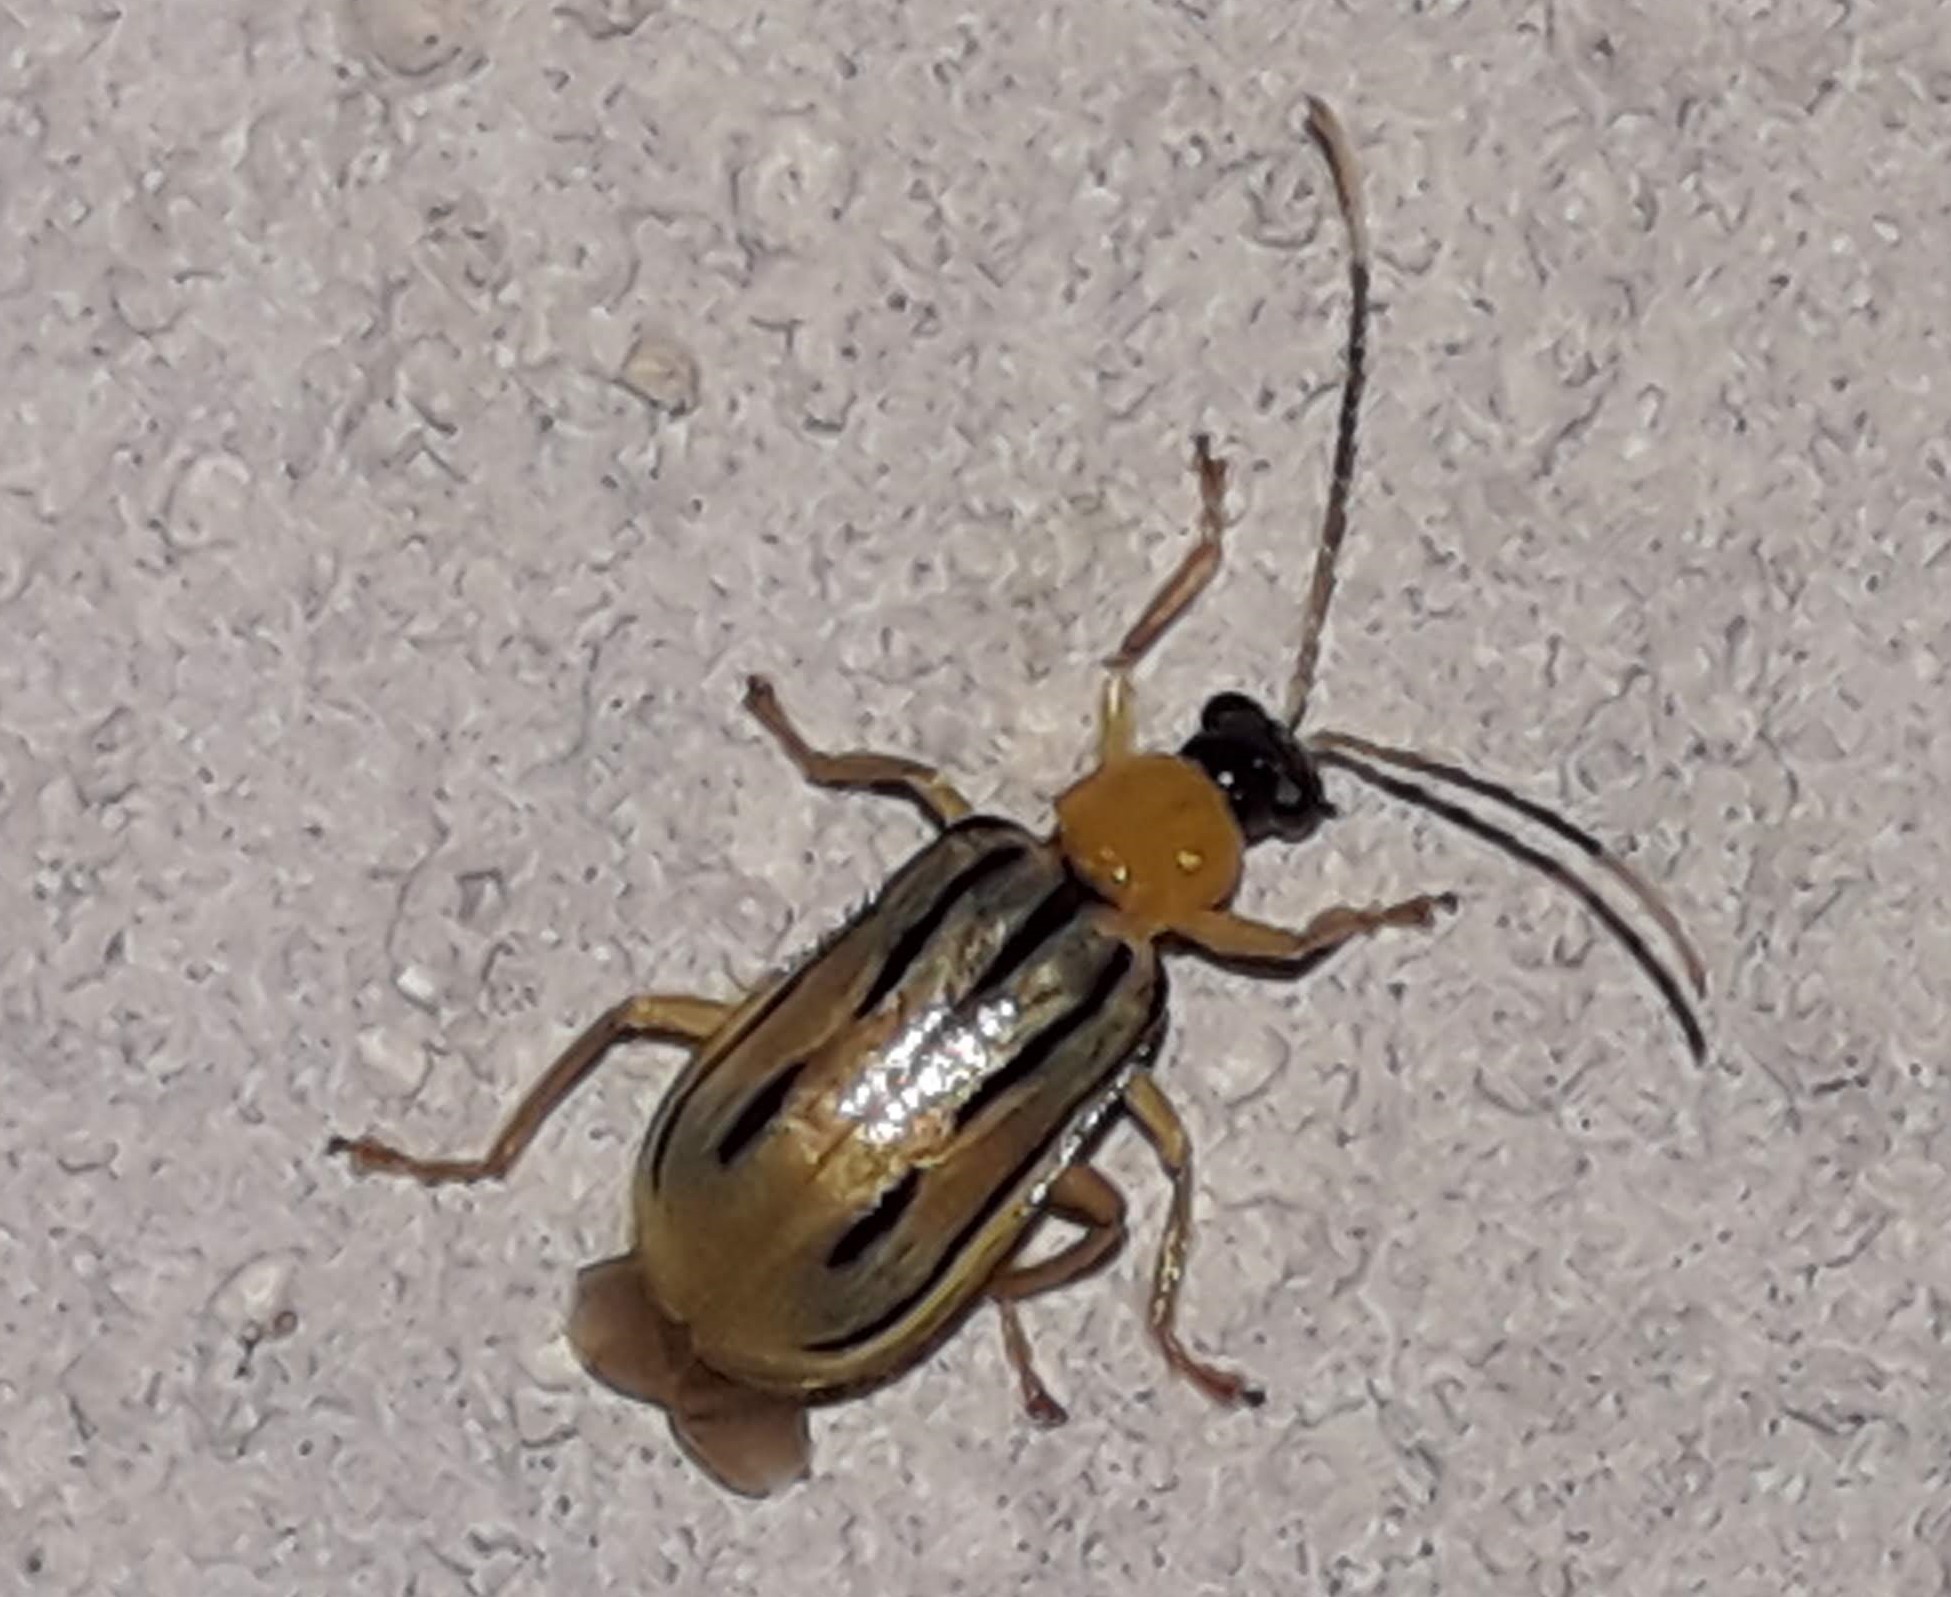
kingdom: Animalia
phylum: Arthropoda
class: Insecta
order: Coleoptera
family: Chrysomelidae
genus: Diabrotica
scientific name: Diabrotica
